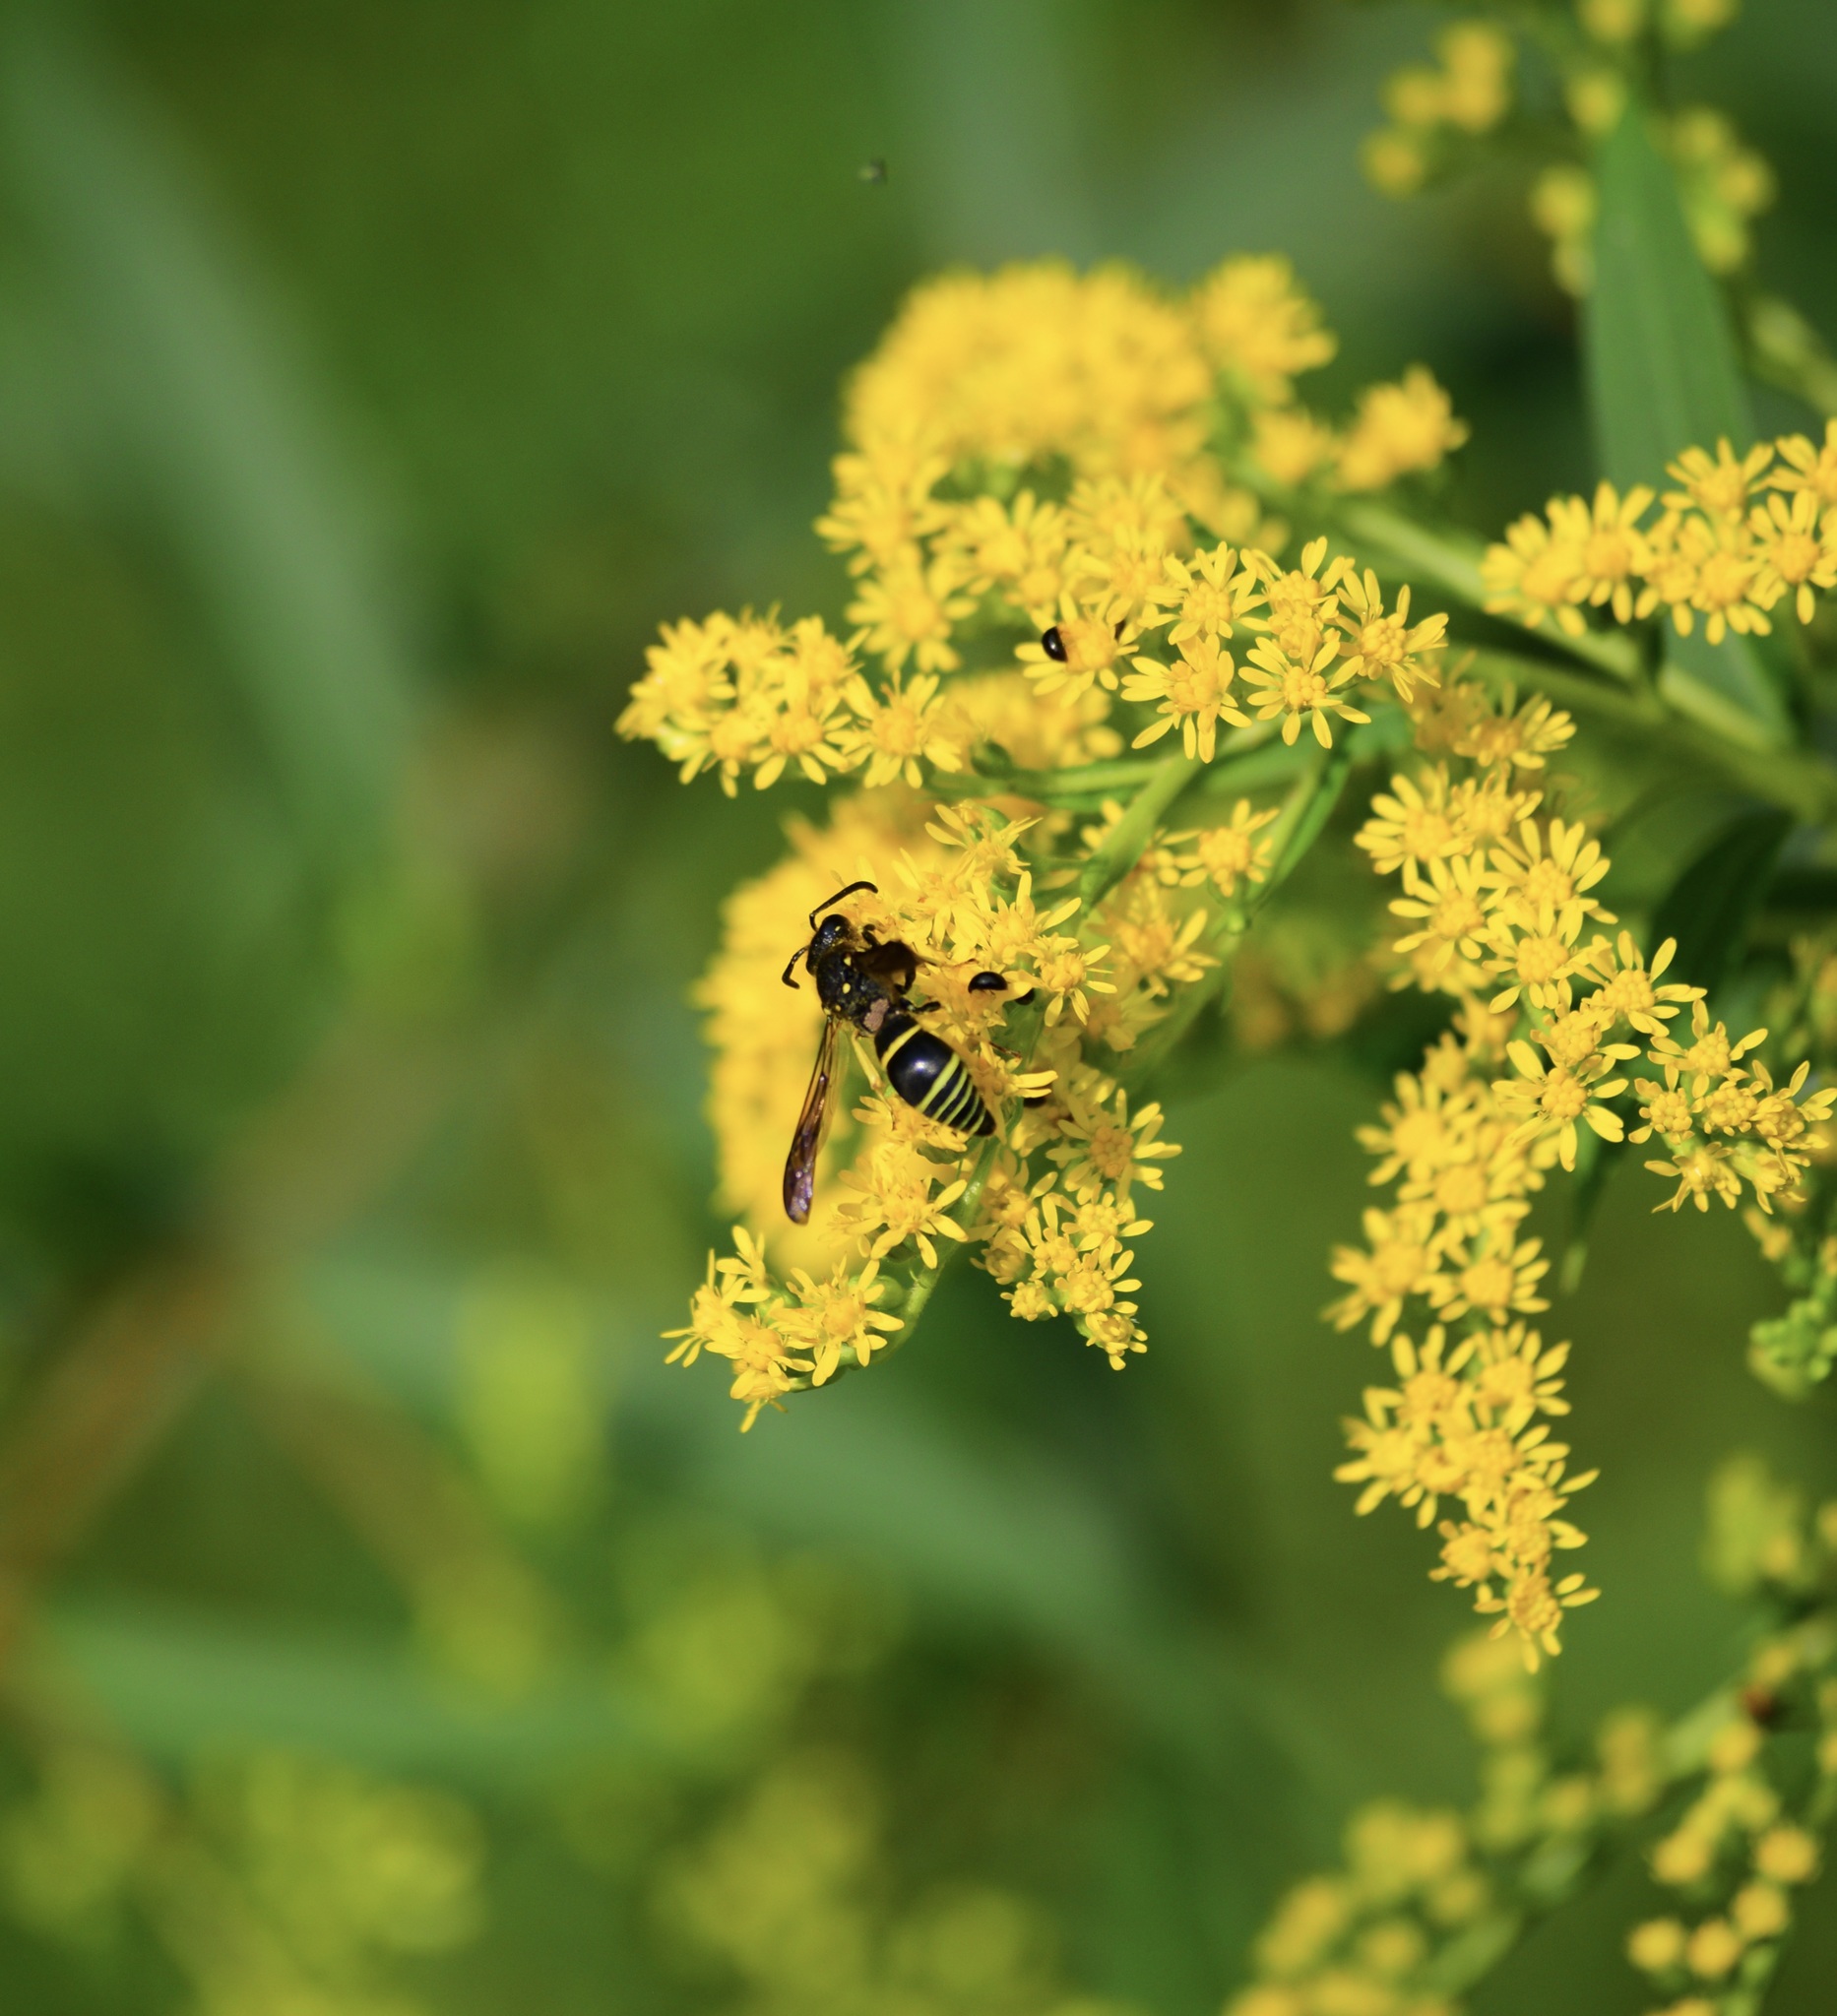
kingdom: Animalia
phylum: Arthropoda
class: Insecta
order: Hymenoptera
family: Vespidae
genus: Ancistrocerus
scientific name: Ancistrocerus
